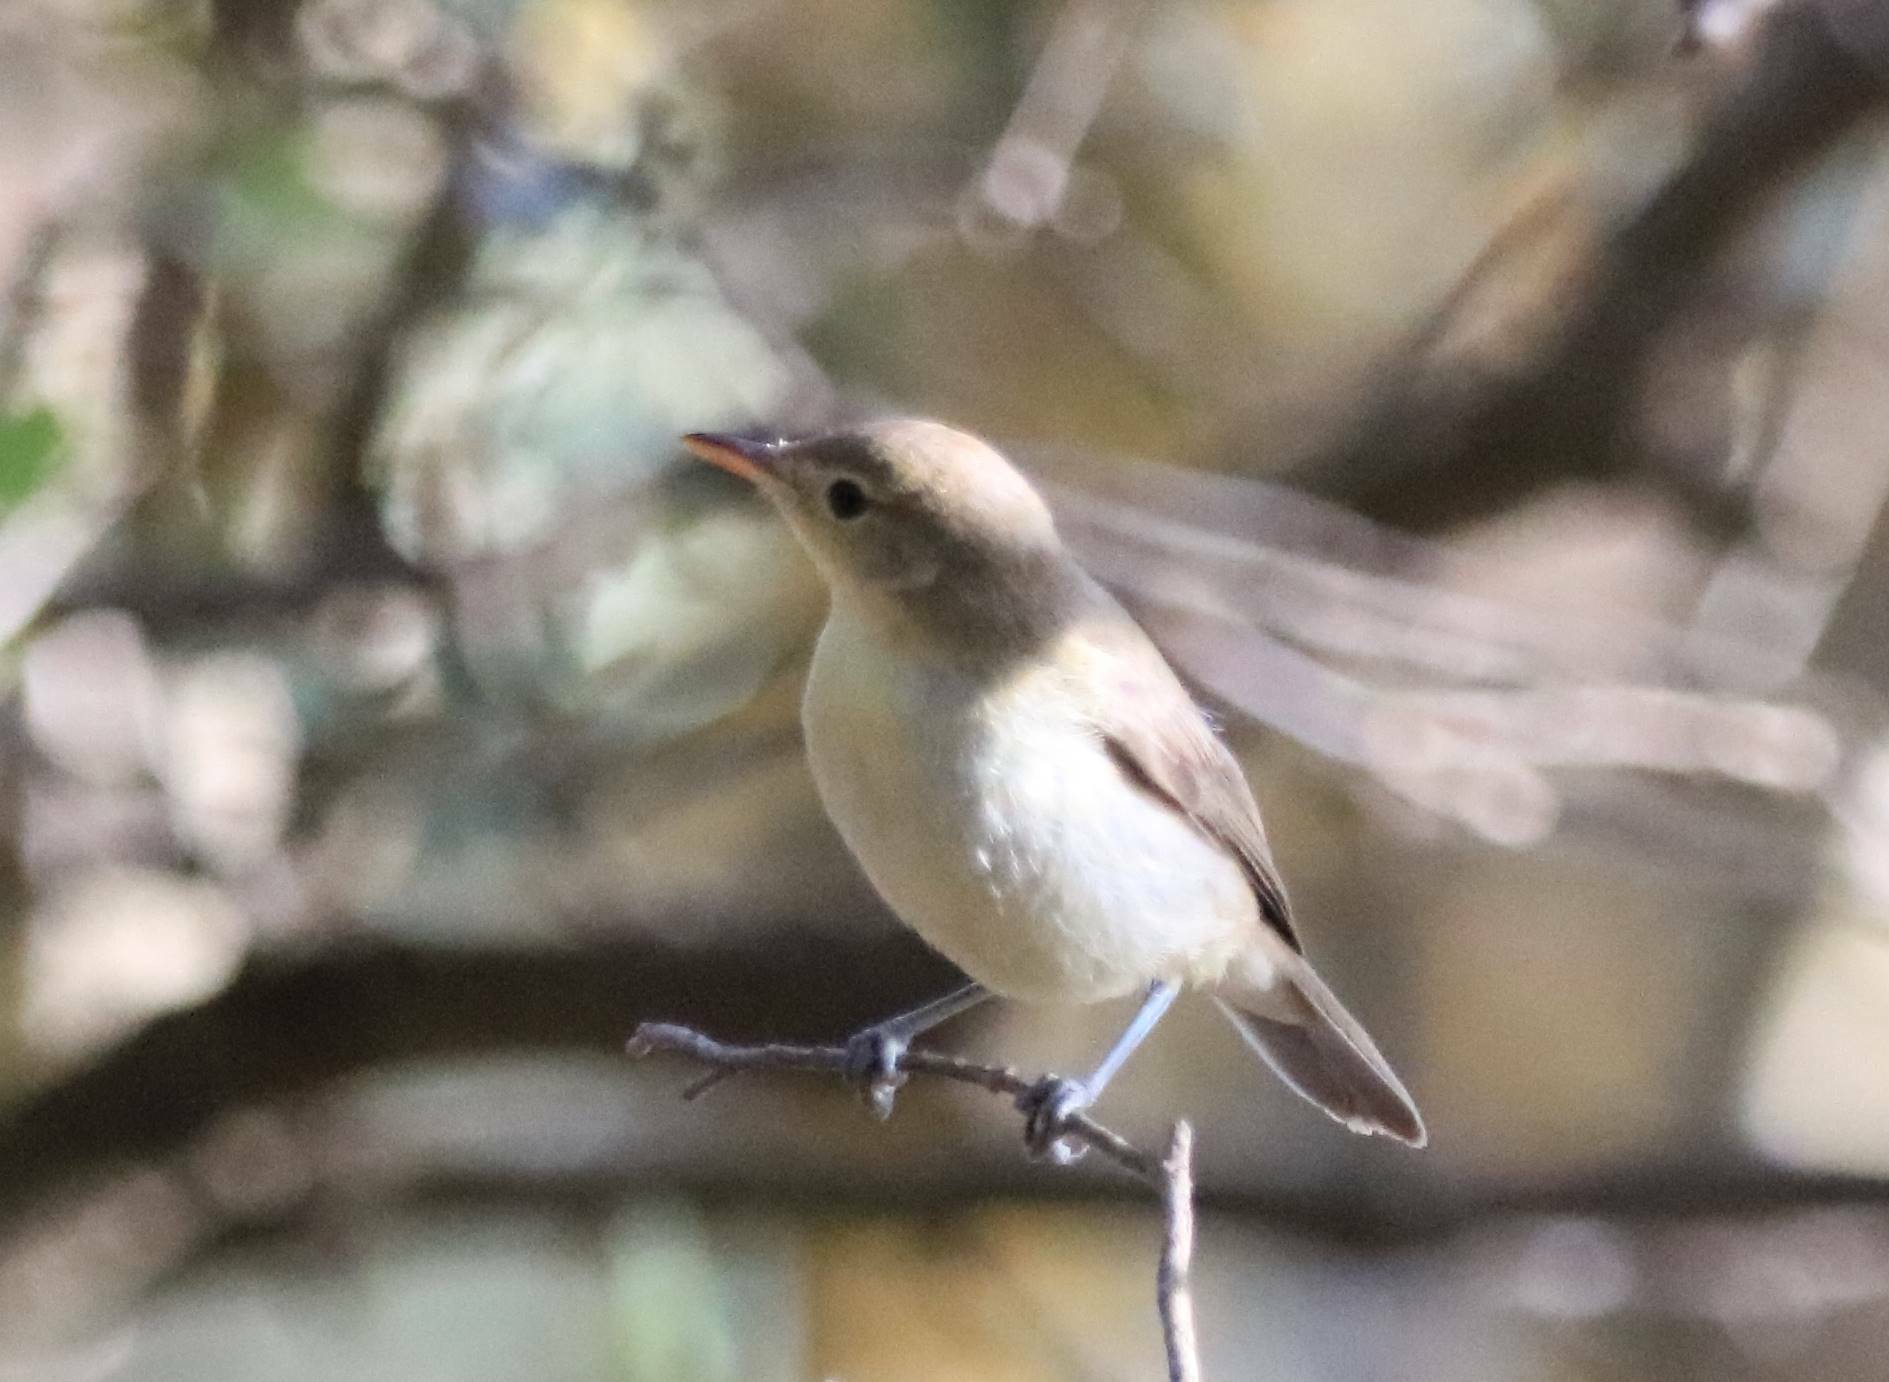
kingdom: Animalia
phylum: Chordata
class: Aves
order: Passeriformes
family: Acrocephalidae
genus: Iduna
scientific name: Iduna pallida
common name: Eastern olivaceous warbler
